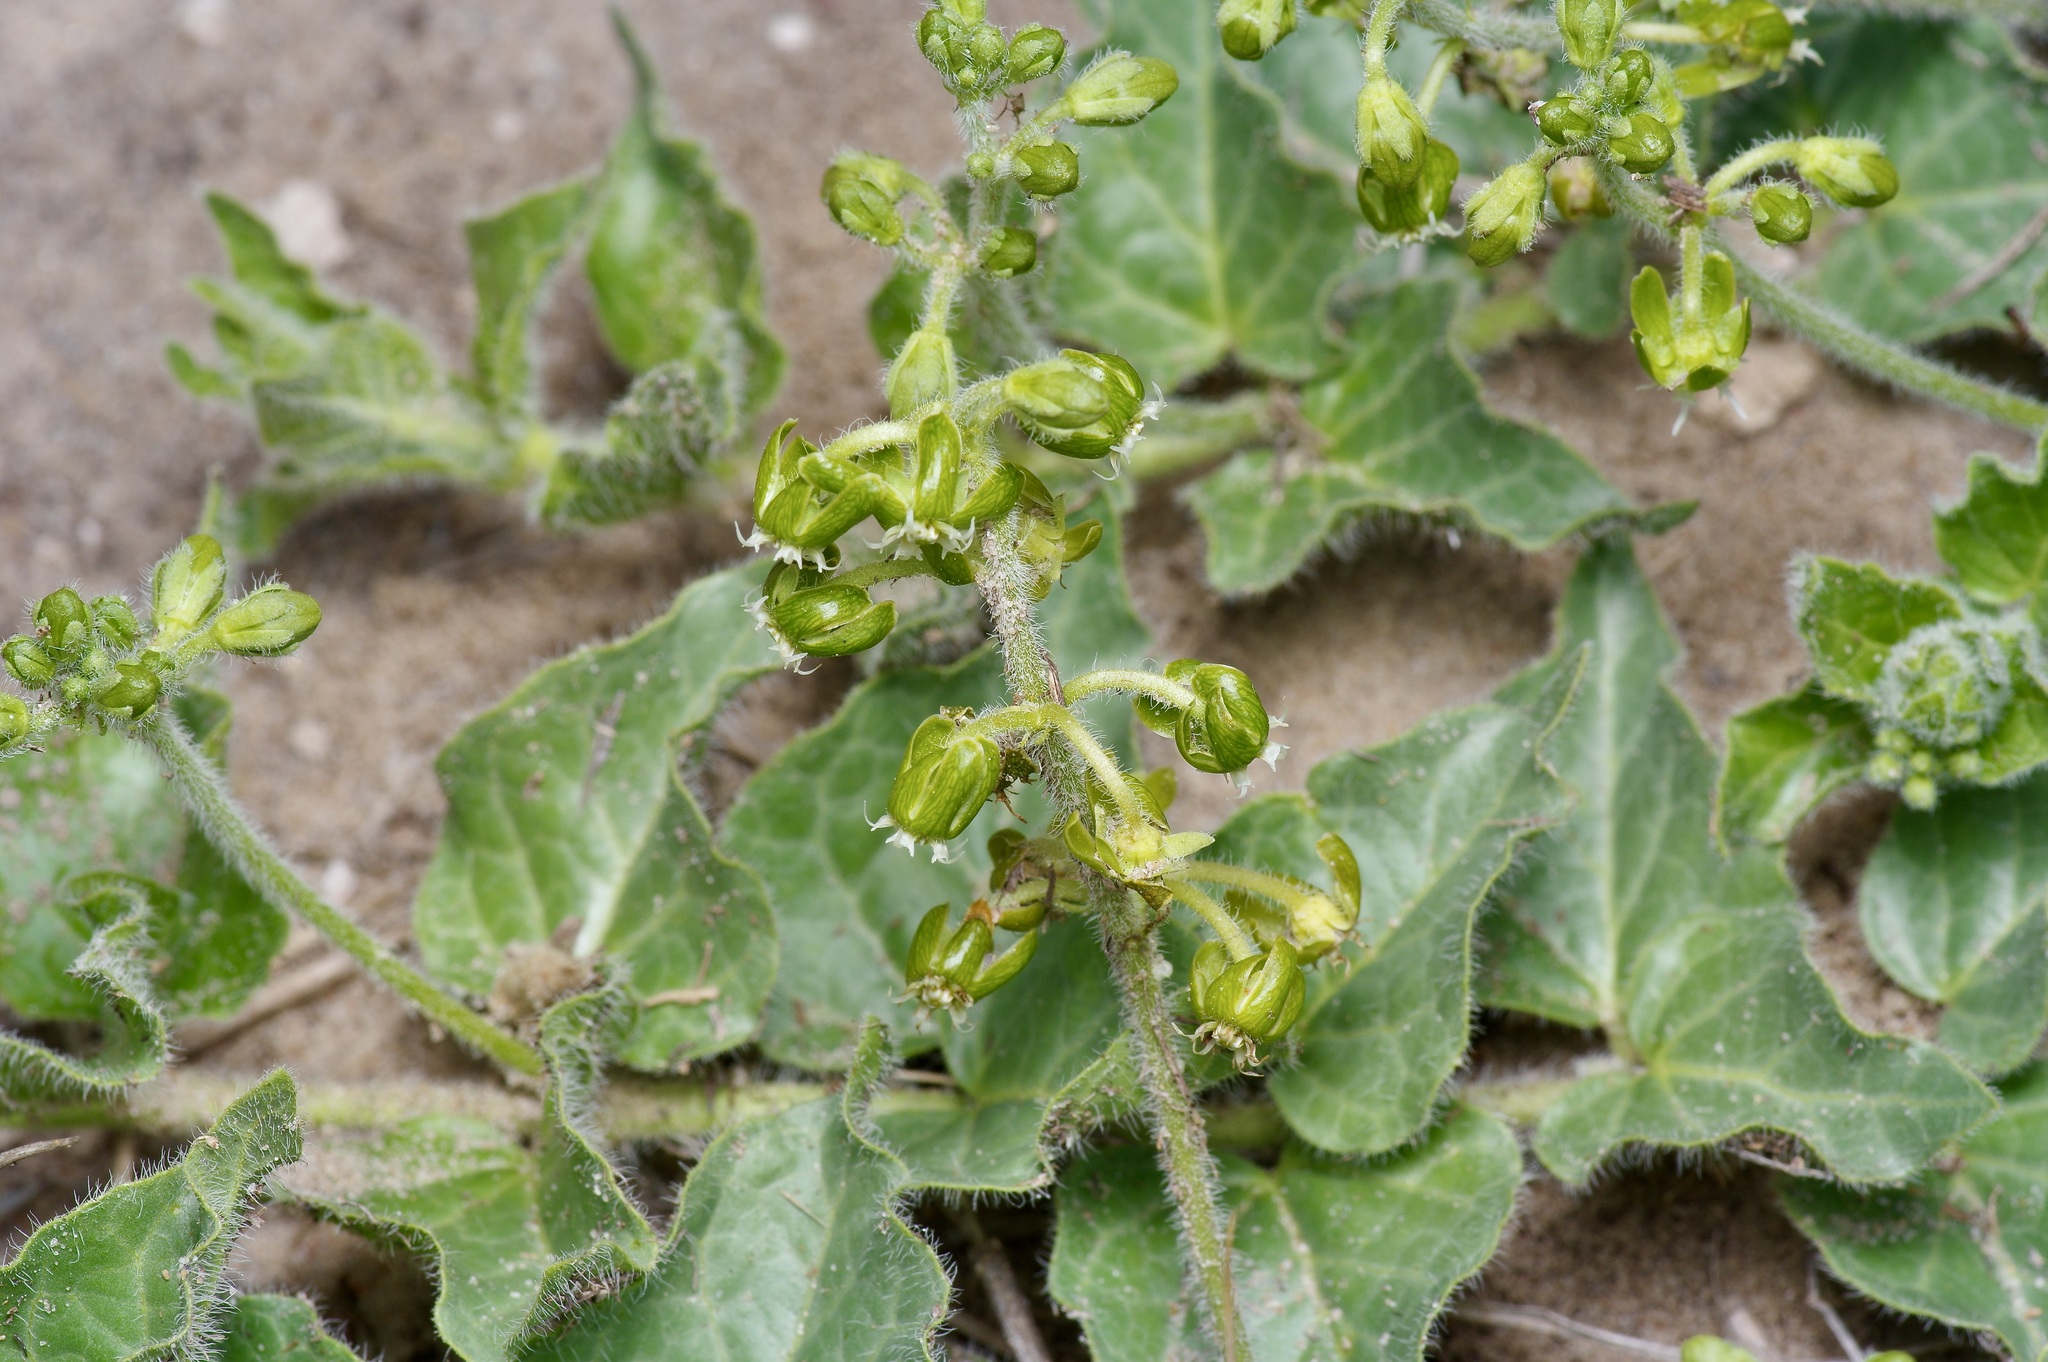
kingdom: Plantae
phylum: Tracheophyta
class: Magnoliopsida
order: Gentianales
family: Apocynaceae
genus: Chthamalia
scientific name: Chthamalia parviflora
